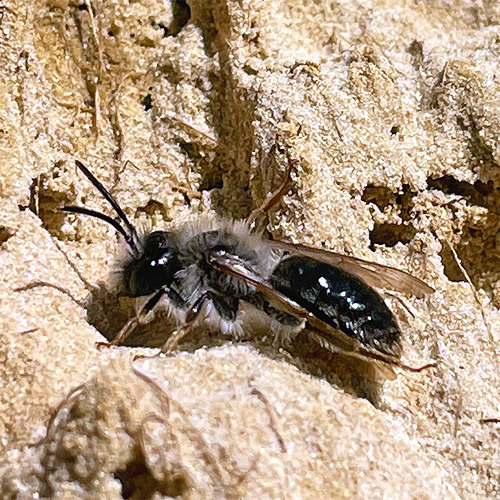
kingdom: Animalia
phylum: Arthropoda
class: Insecta
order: Hymenoptera
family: Andrenidae
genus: Andrena
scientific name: Andrena vaga
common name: Grey-backed mining bee
